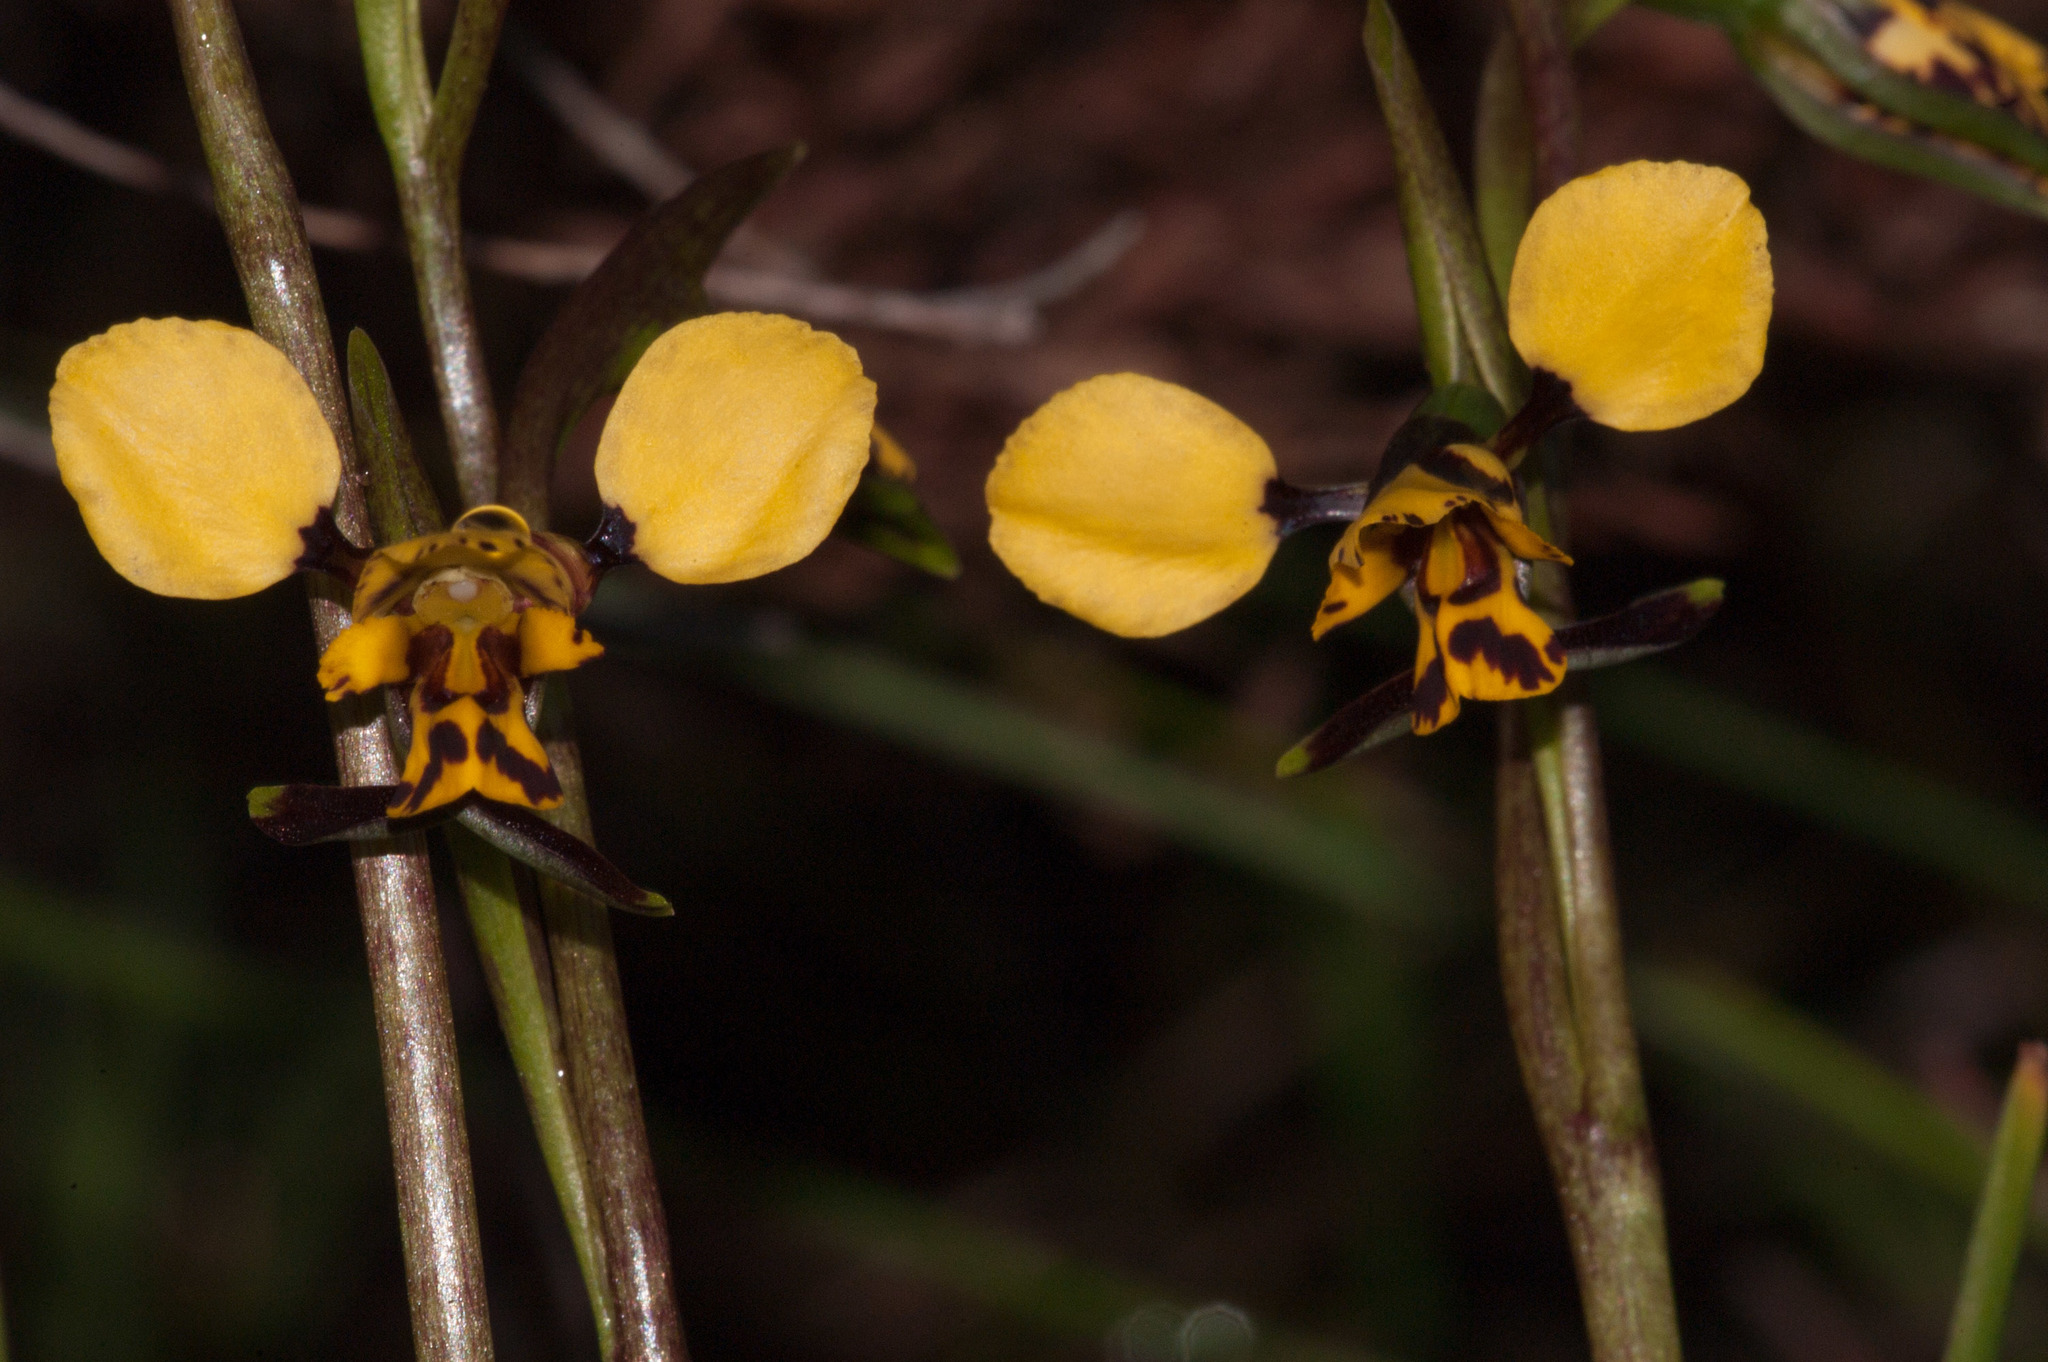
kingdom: Plantae
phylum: Tracheophyta
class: Liliopsida
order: Asparagales
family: Orchidaceae
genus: Diuris
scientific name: Diuris pardina
